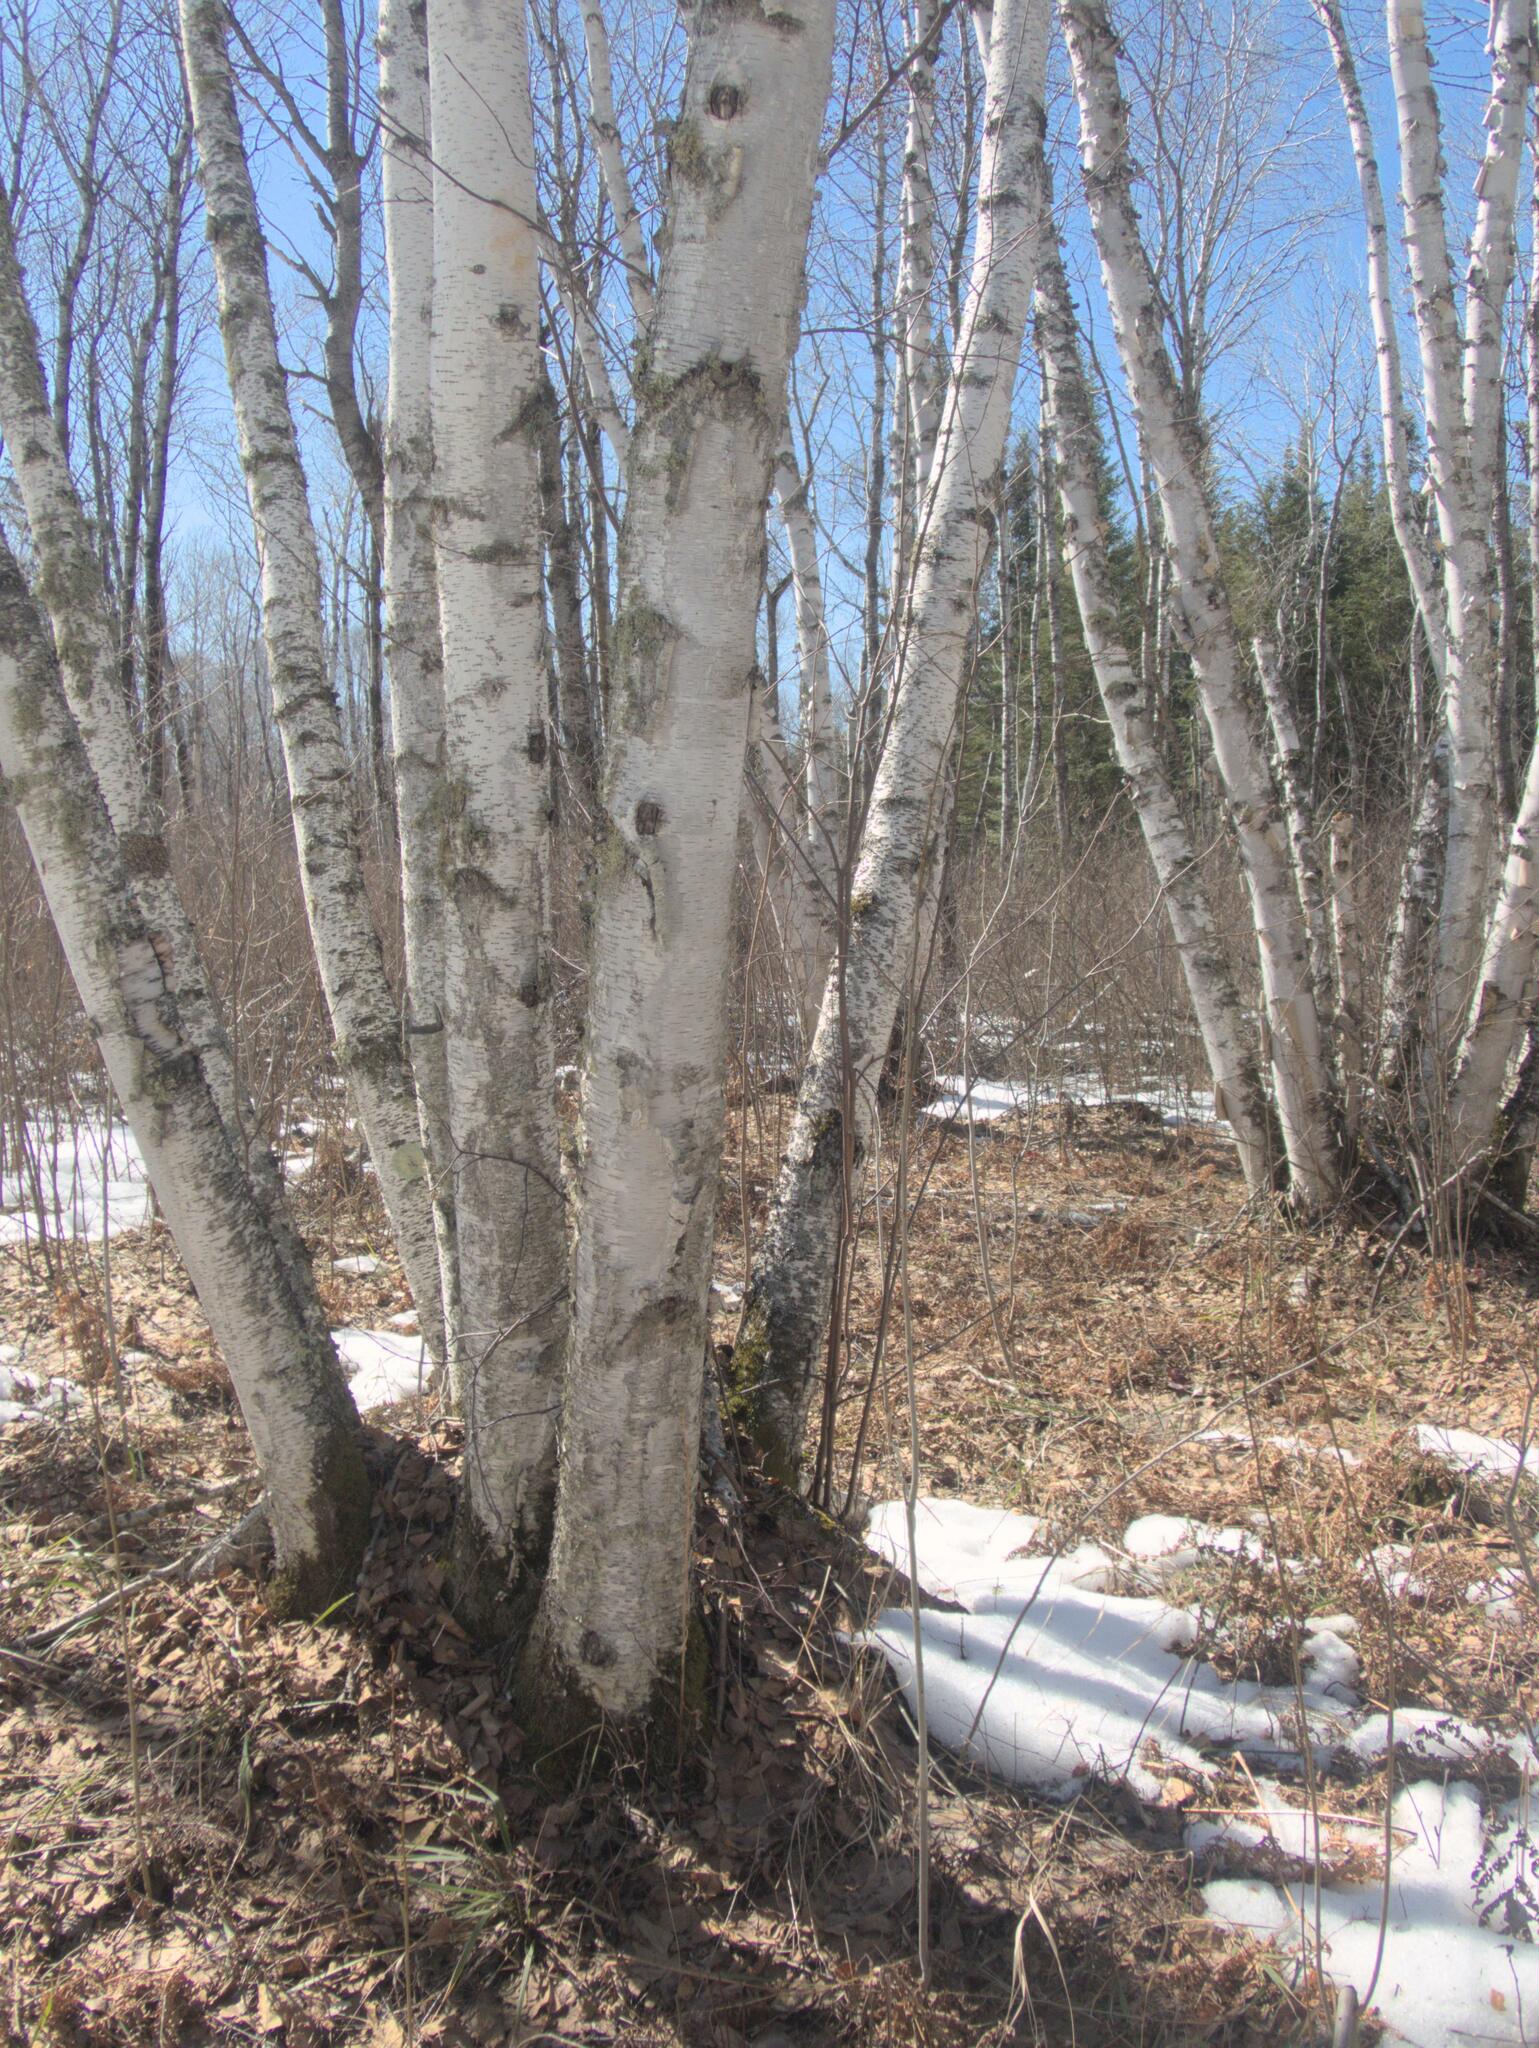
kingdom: Plantae
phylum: Tracheophyta
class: Magnoliopsida
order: Fagales
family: Betulaceae
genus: Betula
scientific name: Betula papyrifera
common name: Paper birch
